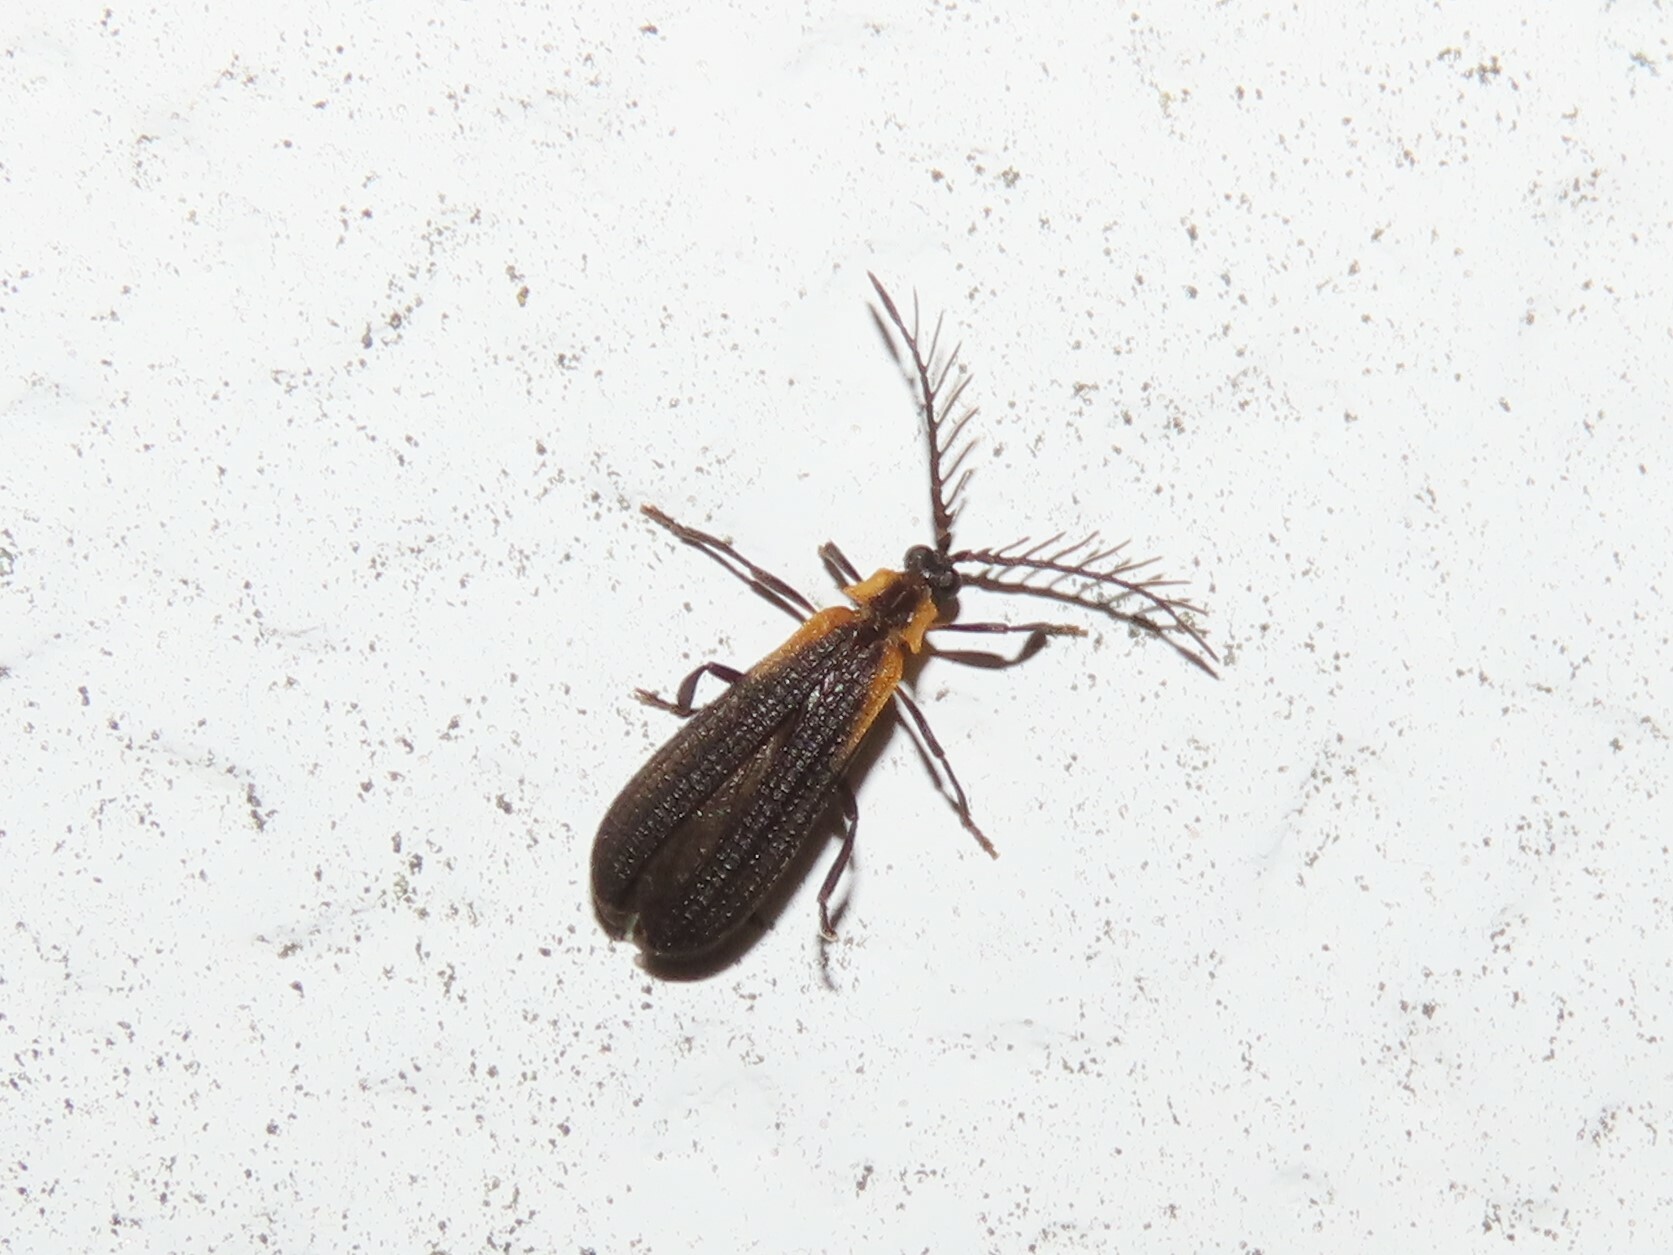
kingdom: Animalia
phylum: Arthropoda
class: Insecta
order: Coleoptera
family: Lycidae
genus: Leptoceletes
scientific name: Leptoceletes basalis
